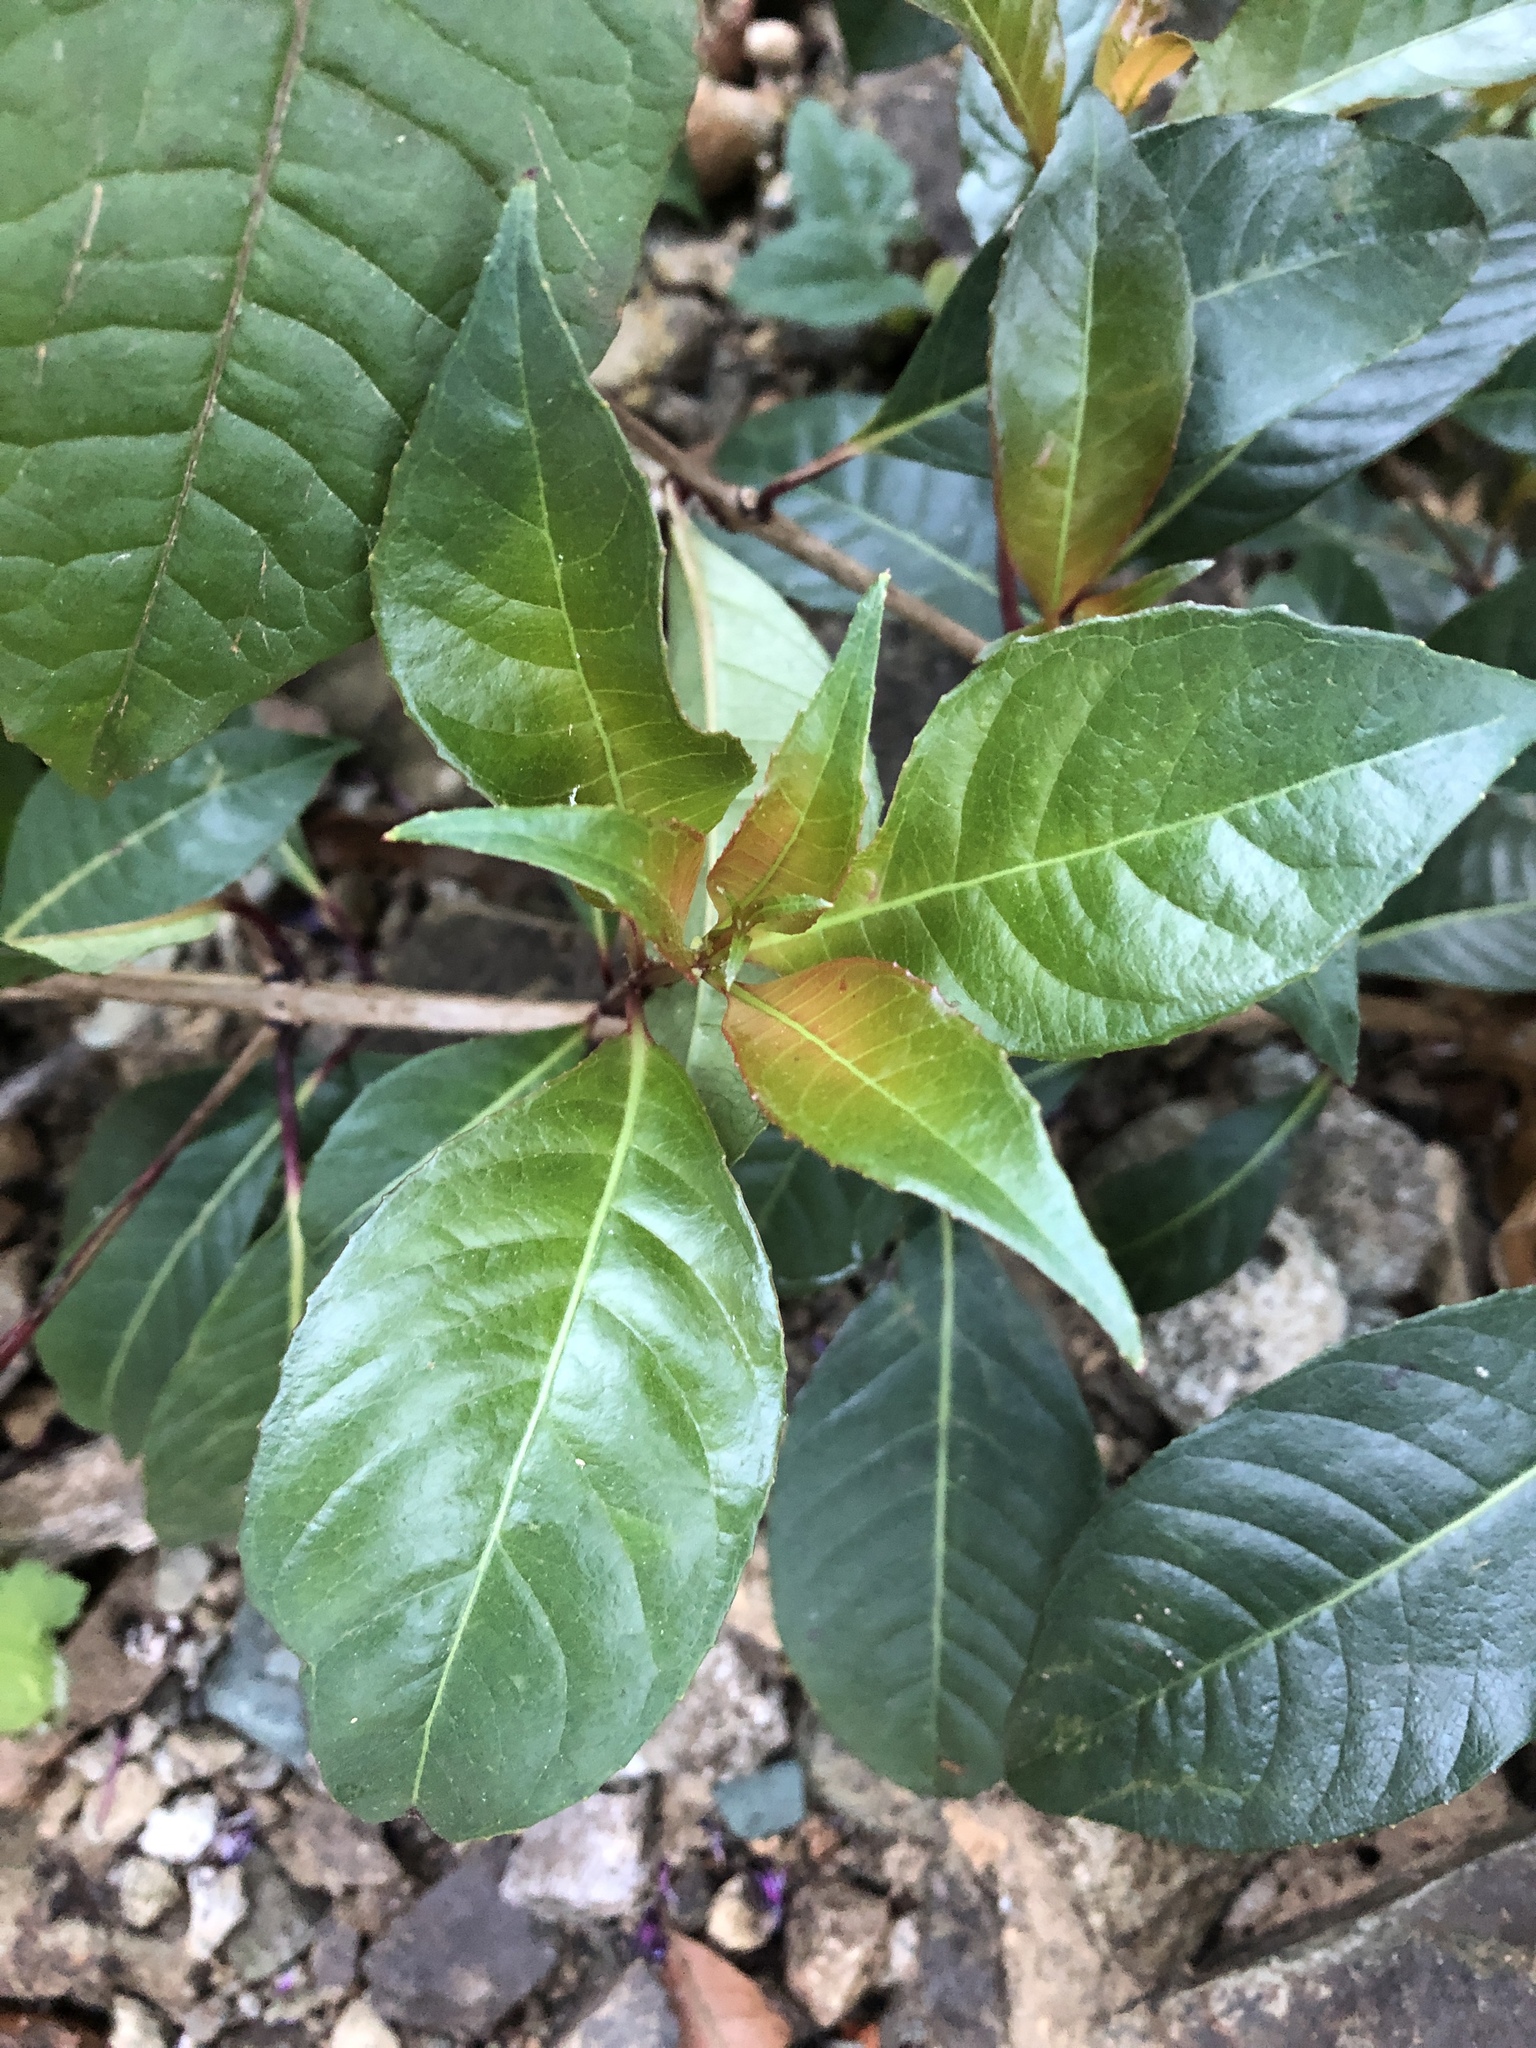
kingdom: Plantae
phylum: Tracheophyta
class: Magnoliopsida
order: Myrtales
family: Onagraceae
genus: Fuchsia
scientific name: Fuchsia paniculata
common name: Shrubby fuchsia
